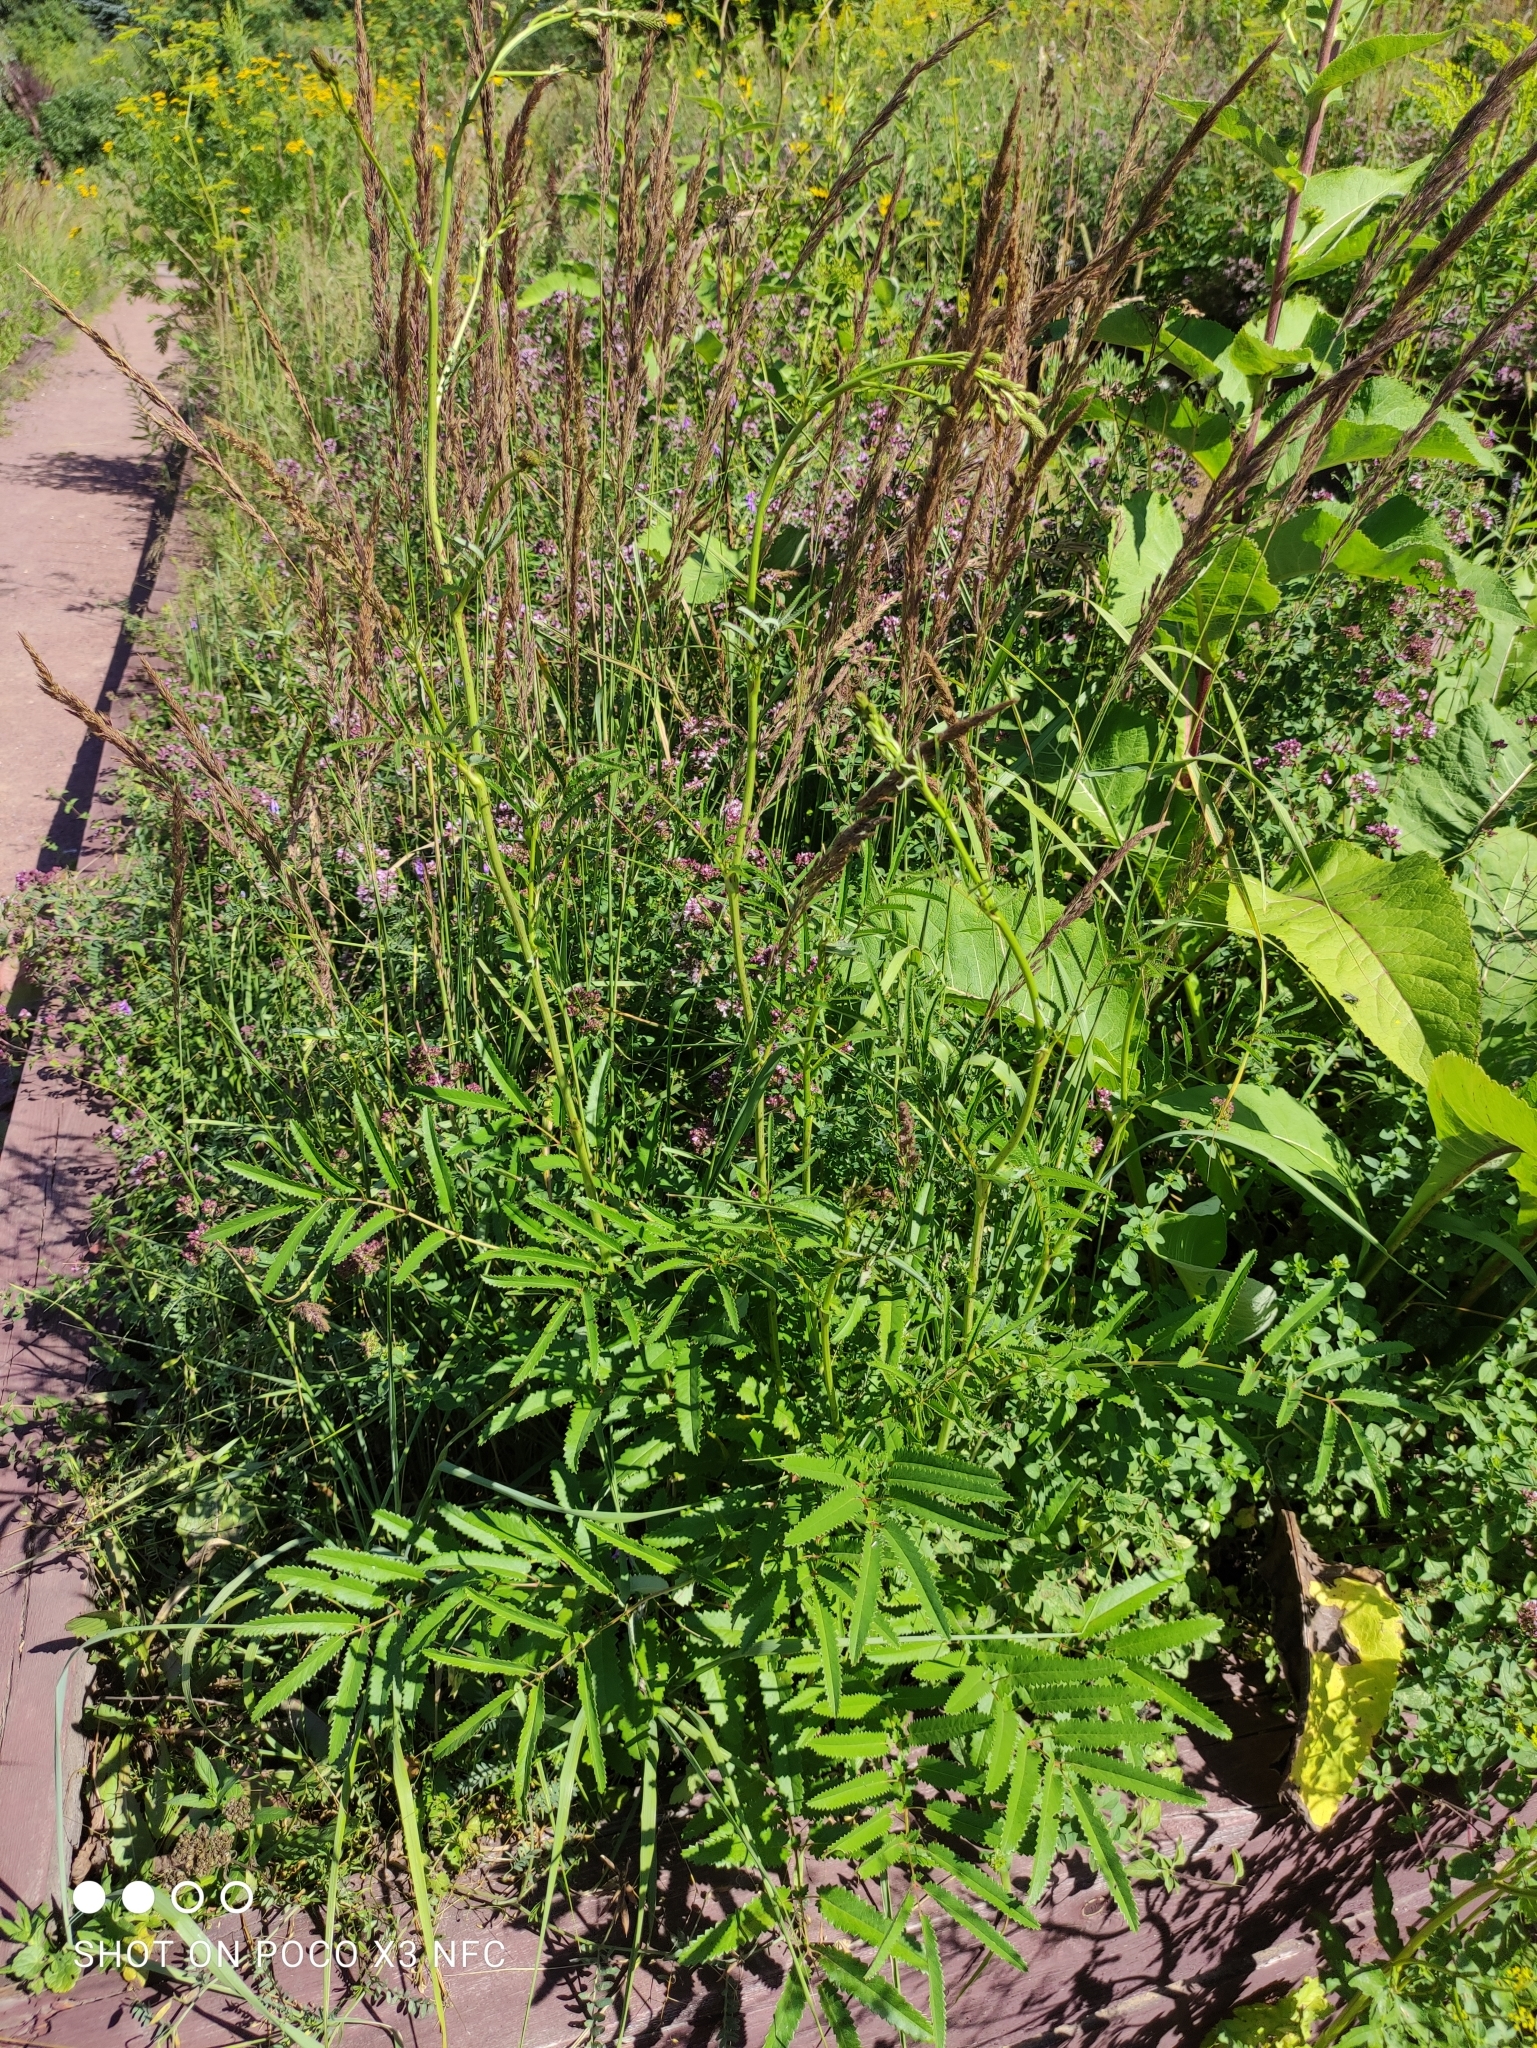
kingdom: Plantae
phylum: Tracheophyta
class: Magnoliopsida
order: Rosales
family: Rosaceae
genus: Sanguisorba
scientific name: Sanguisorba officinalis
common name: Great burnet
